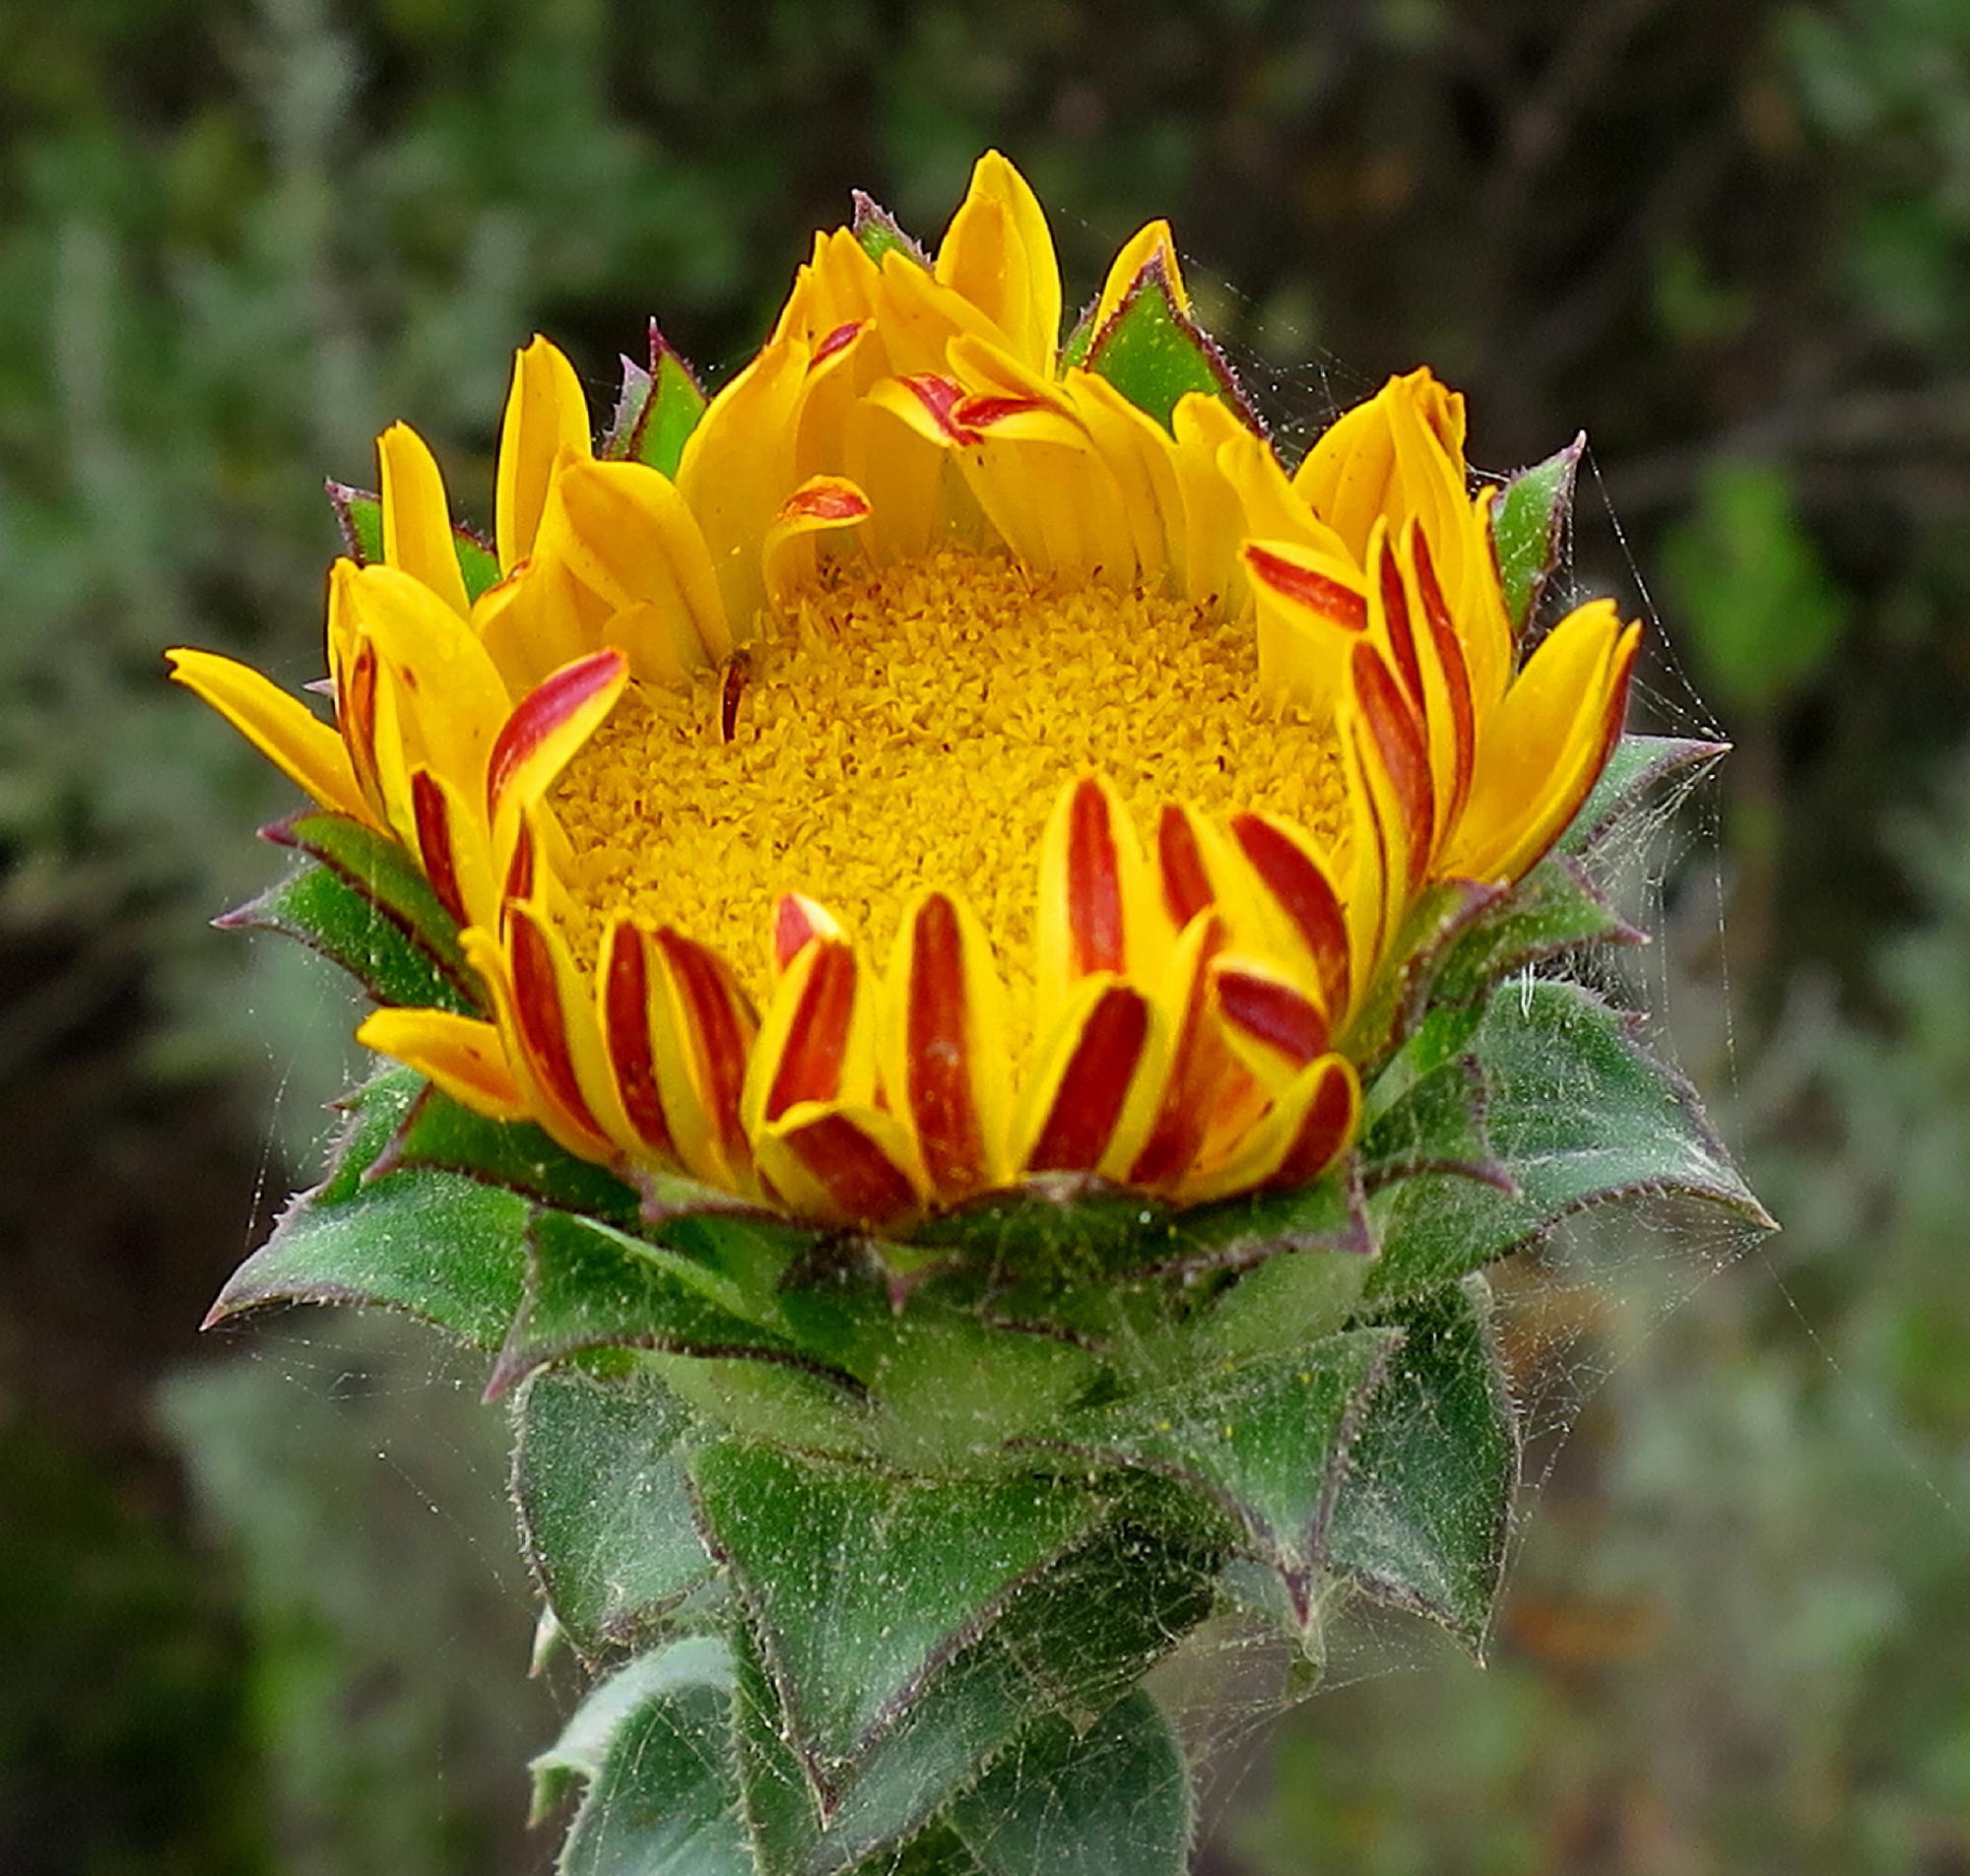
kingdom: Plantae
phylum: Tracheophyta
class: Magnoliopsida
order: Asterales
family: Asteraceae
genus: Oedera
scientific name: Oedera imbricata
